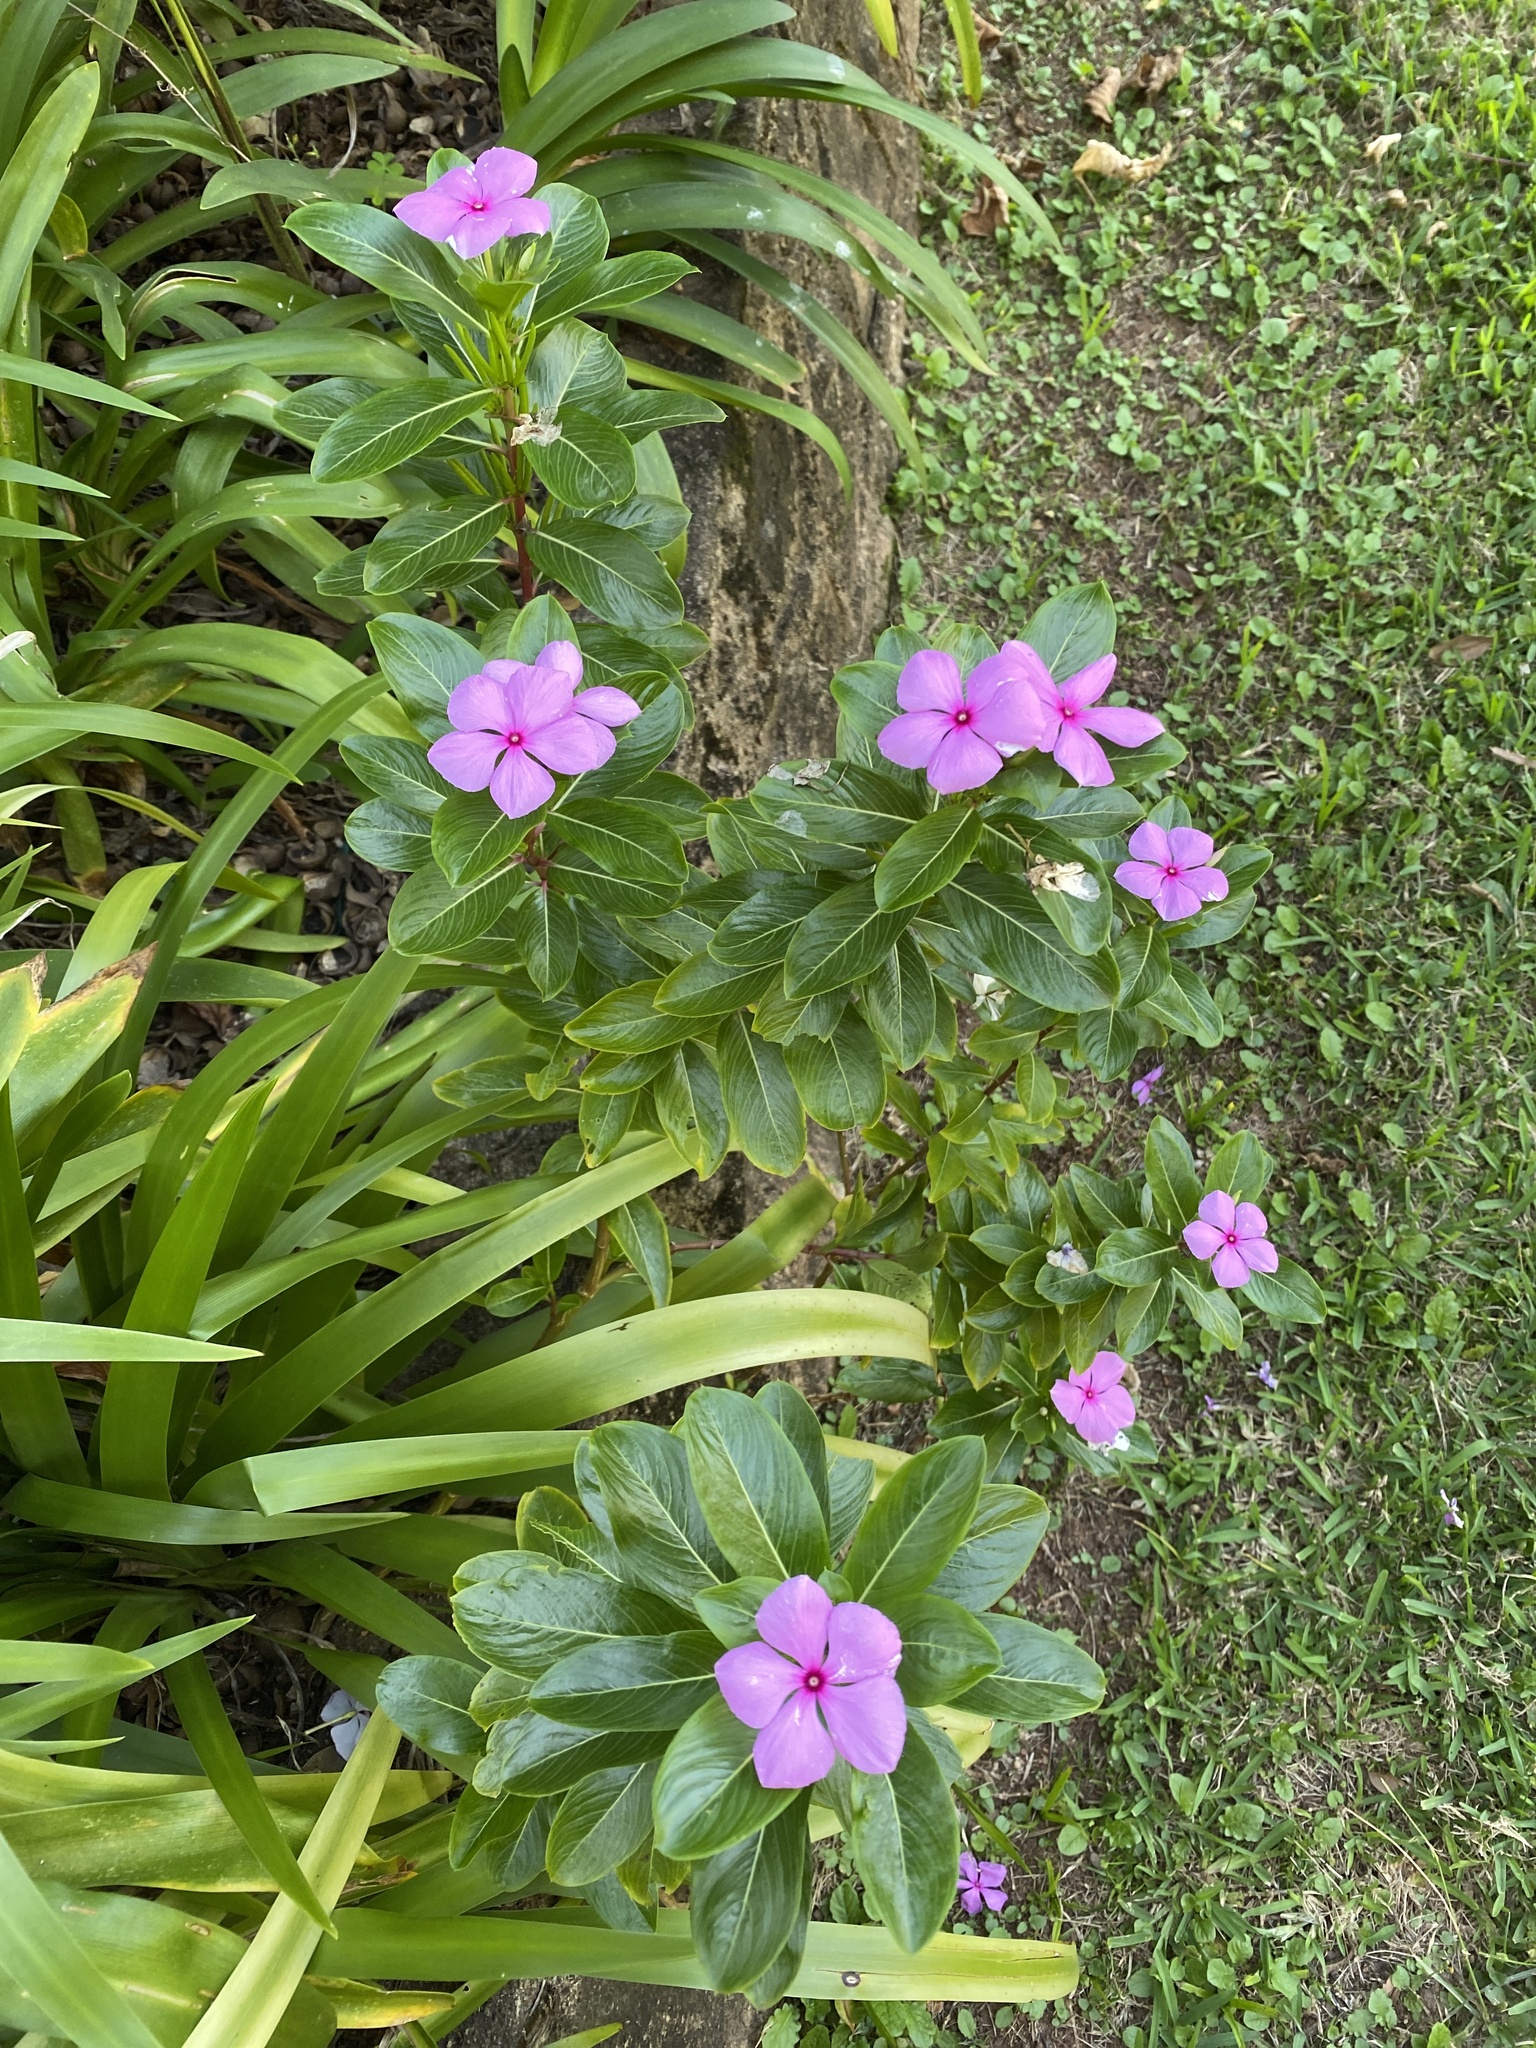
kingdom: Plantae
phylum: Tracheophyta
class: Magnoliopsida
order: Gentianales
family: Apocynaceae
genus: Catharanthus
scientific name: Catharanthus roseus
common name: Madagascar periwinkle
